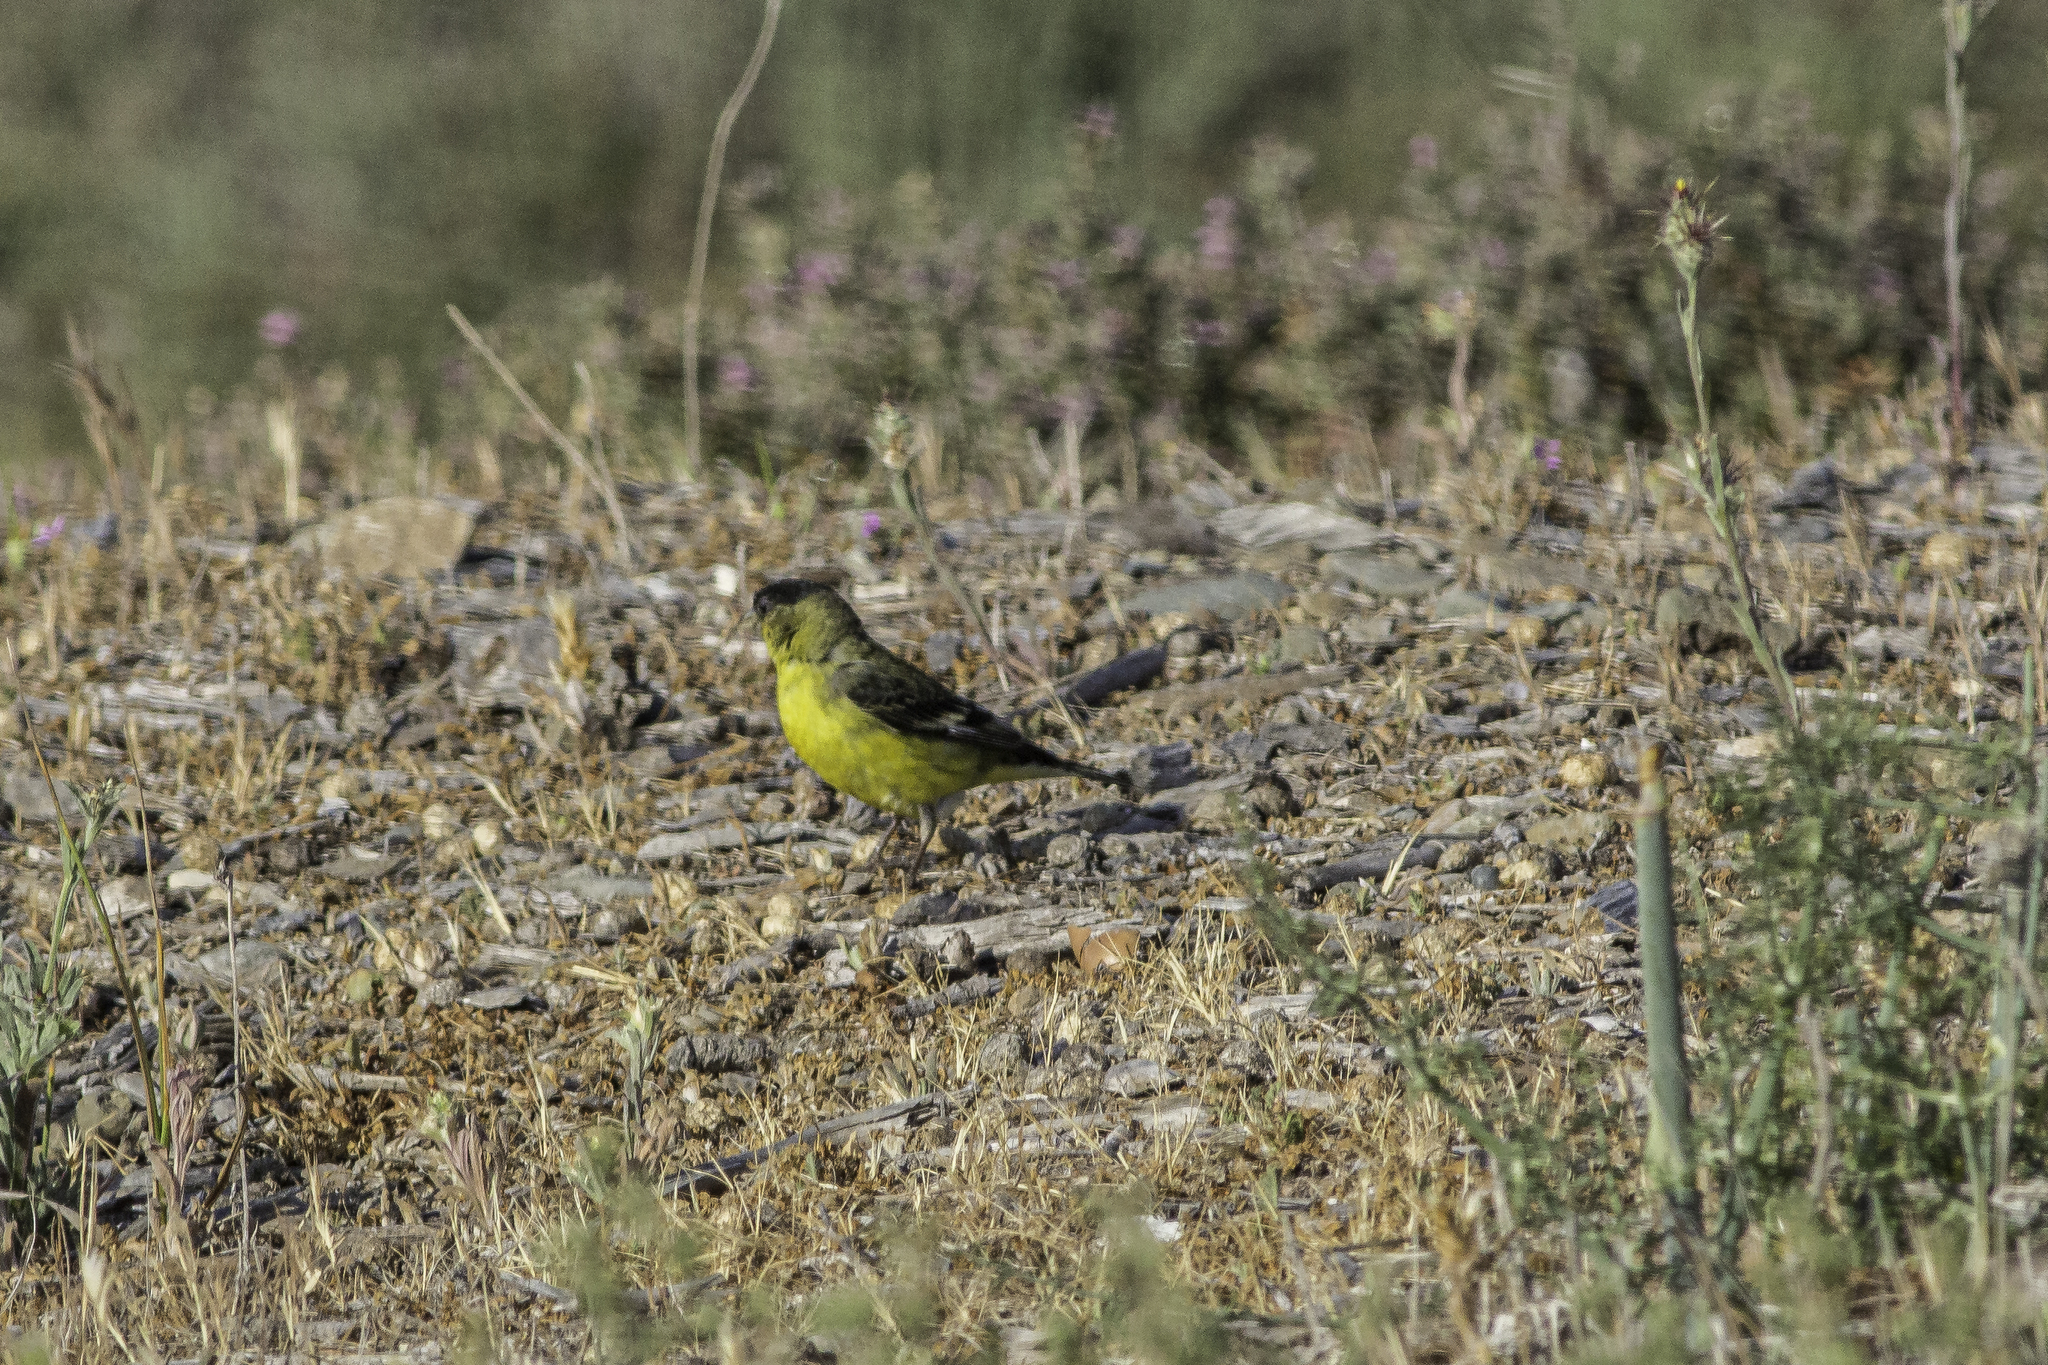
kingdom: Animalia
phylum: Chordata
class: Aves
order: Passeriformes
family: Fringillidae
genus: Spinus
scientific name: Spinus psaltria
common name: Lesser goldfinch
